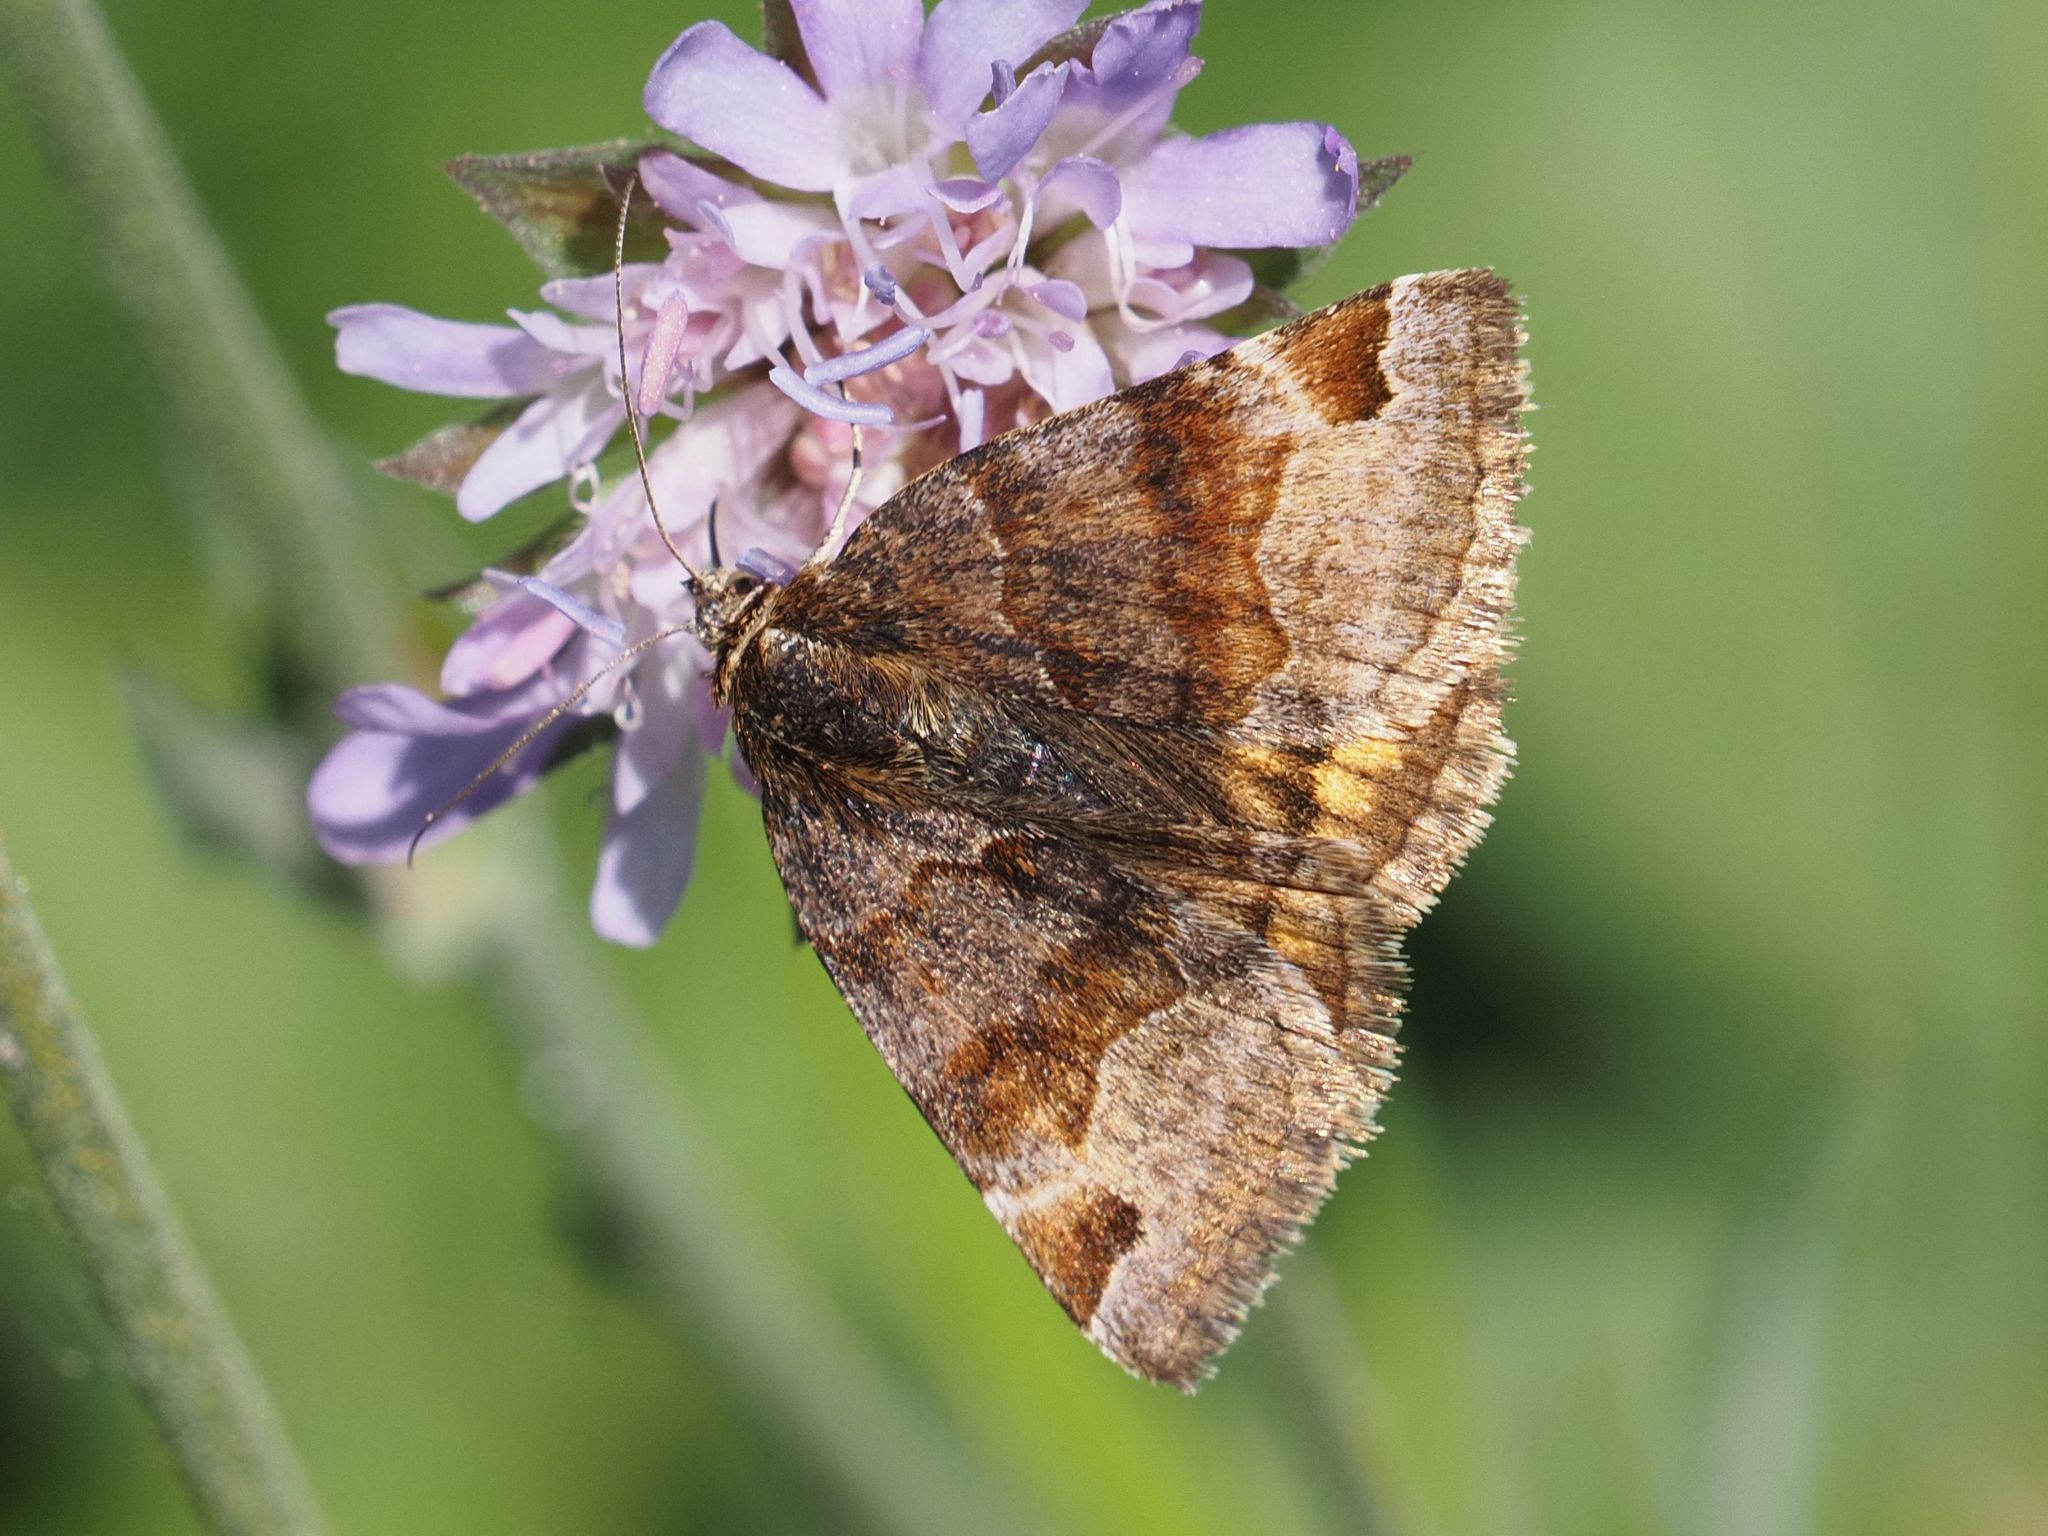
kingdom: Animalia
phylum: Arthropoda
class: Insecta
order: Lepidoptera
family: Erebidae
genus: Euclidia
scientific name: Euclidia glyphica
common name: Burnet companion
